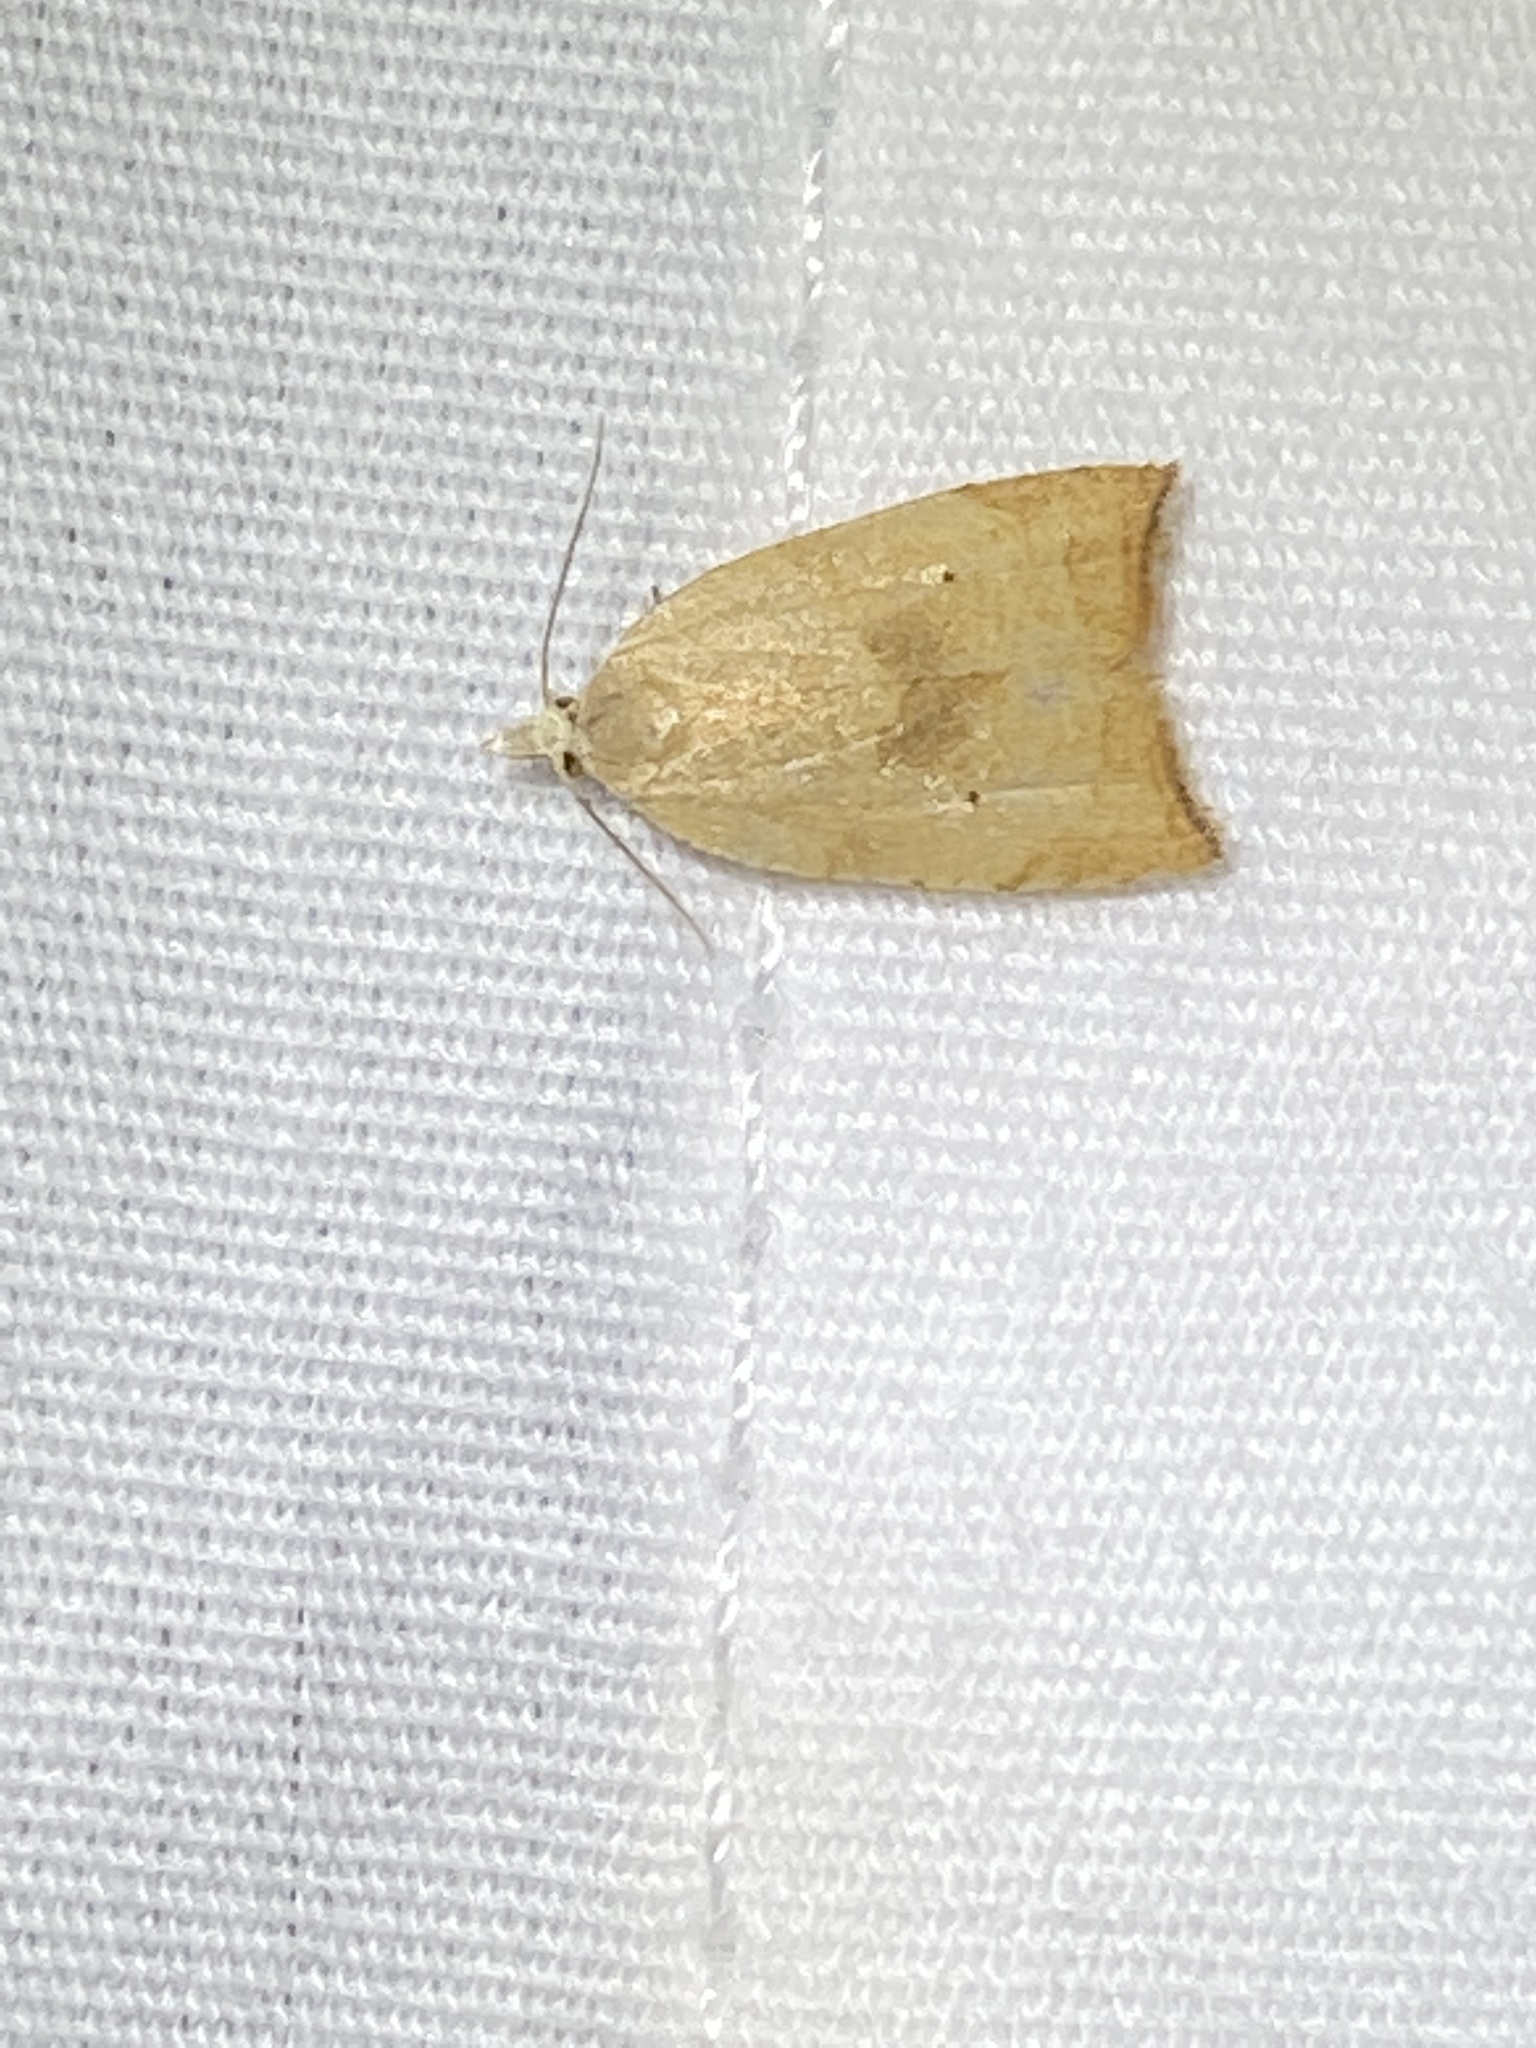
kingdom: Animalia
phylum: Arthropoda
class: Insecta
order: Lepidoptera
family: Tortricidae
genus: Coelostathma
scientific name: Coelostathma discopunctana
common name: Batman moth
